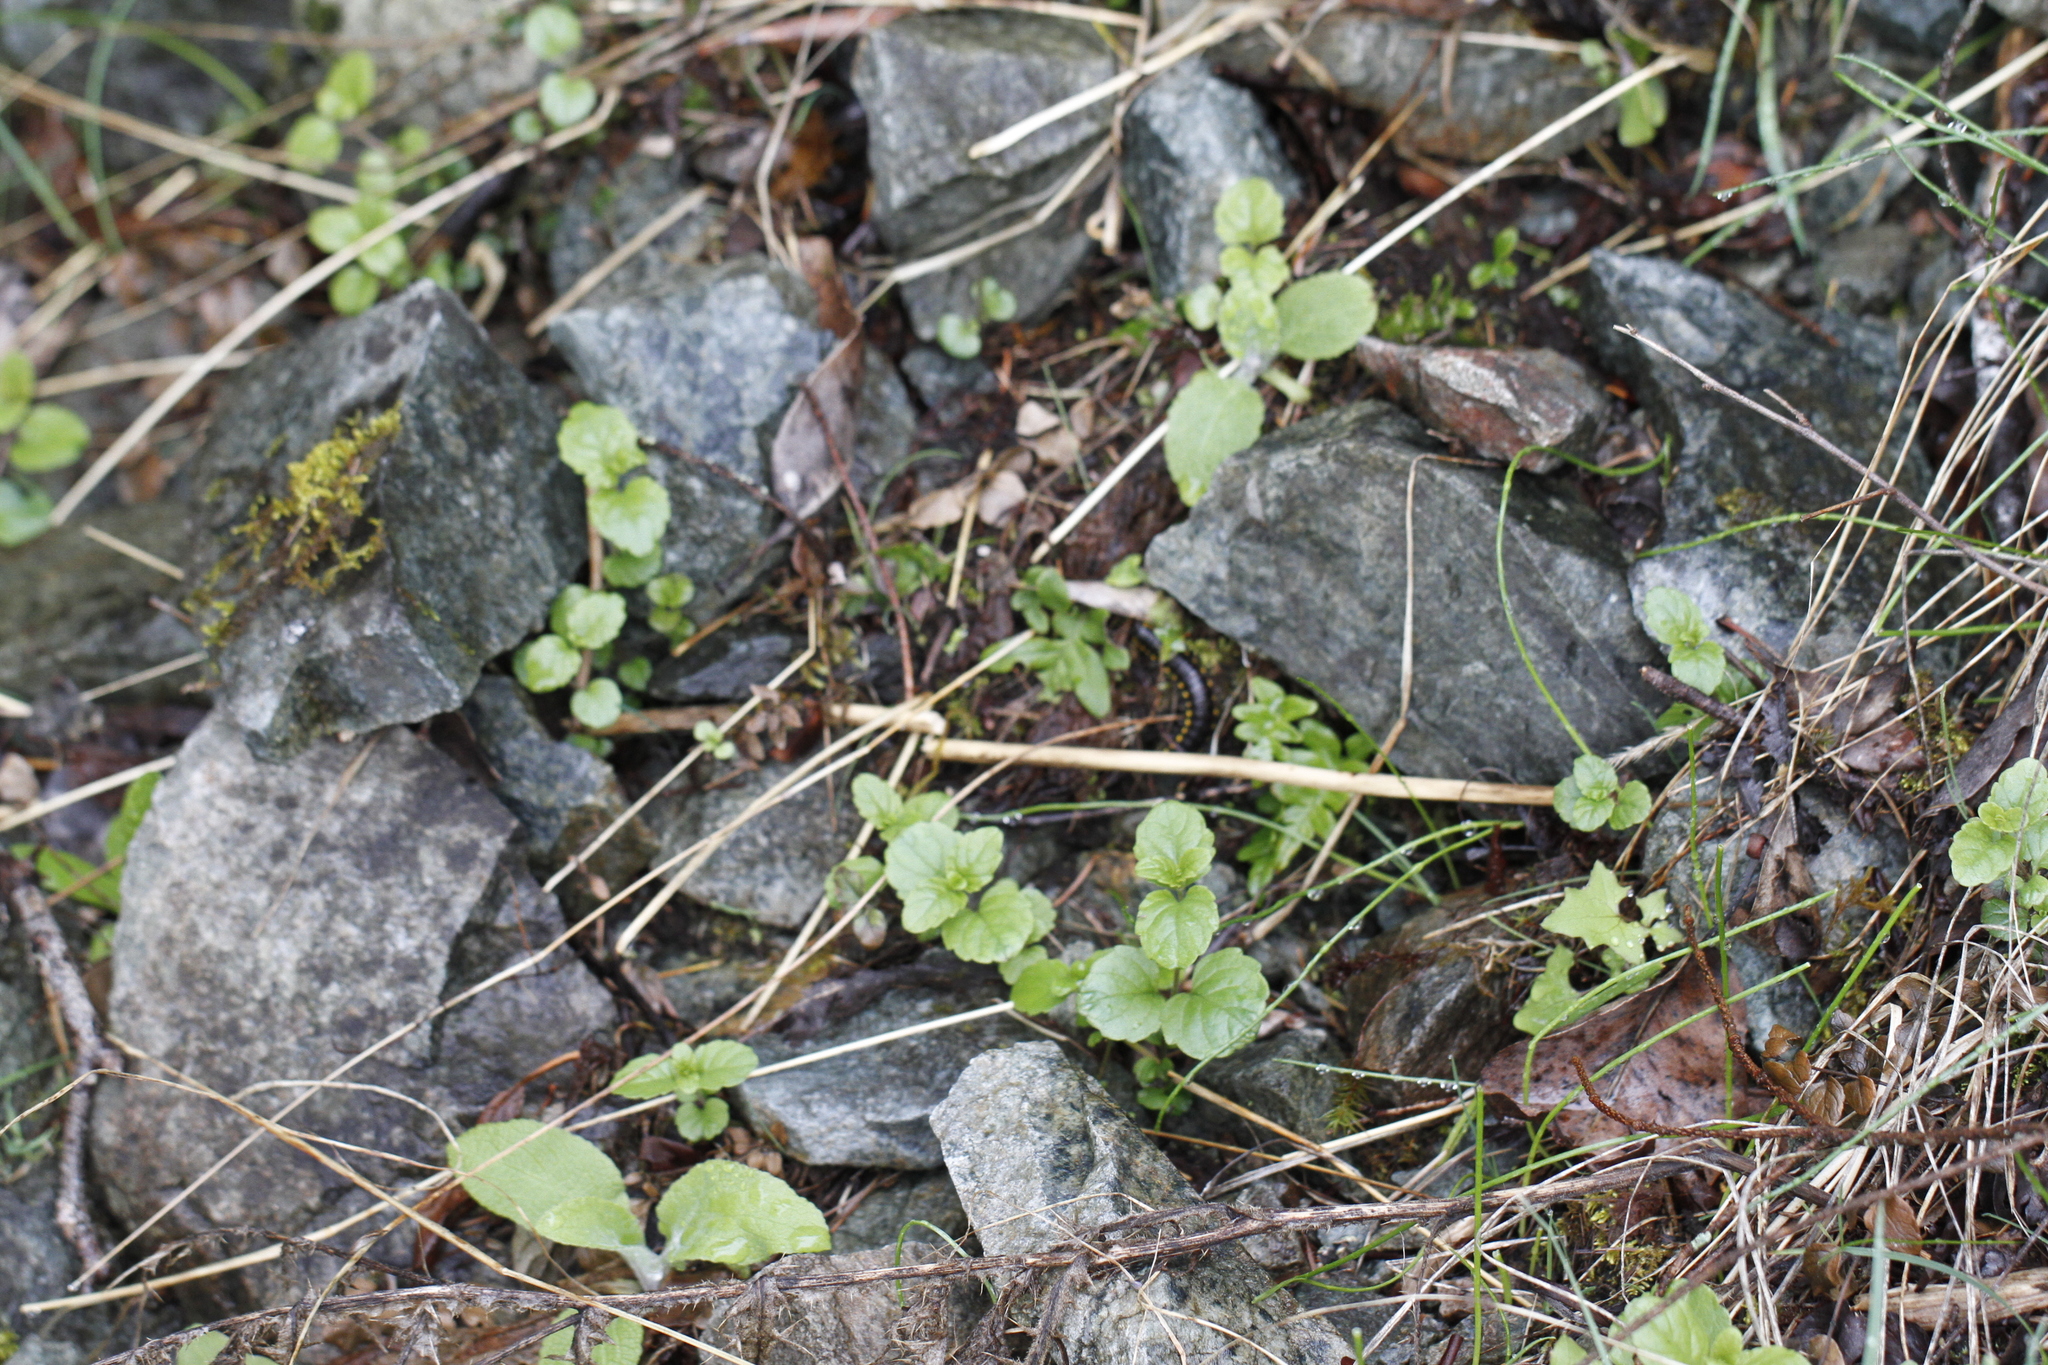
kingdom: Plantae
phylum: Tracheophyta
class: Magnoliopsida
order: Lamiales
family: Lamiaceae
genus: Micromeria
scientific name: Micromeria douglasii
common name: Yerba buena
